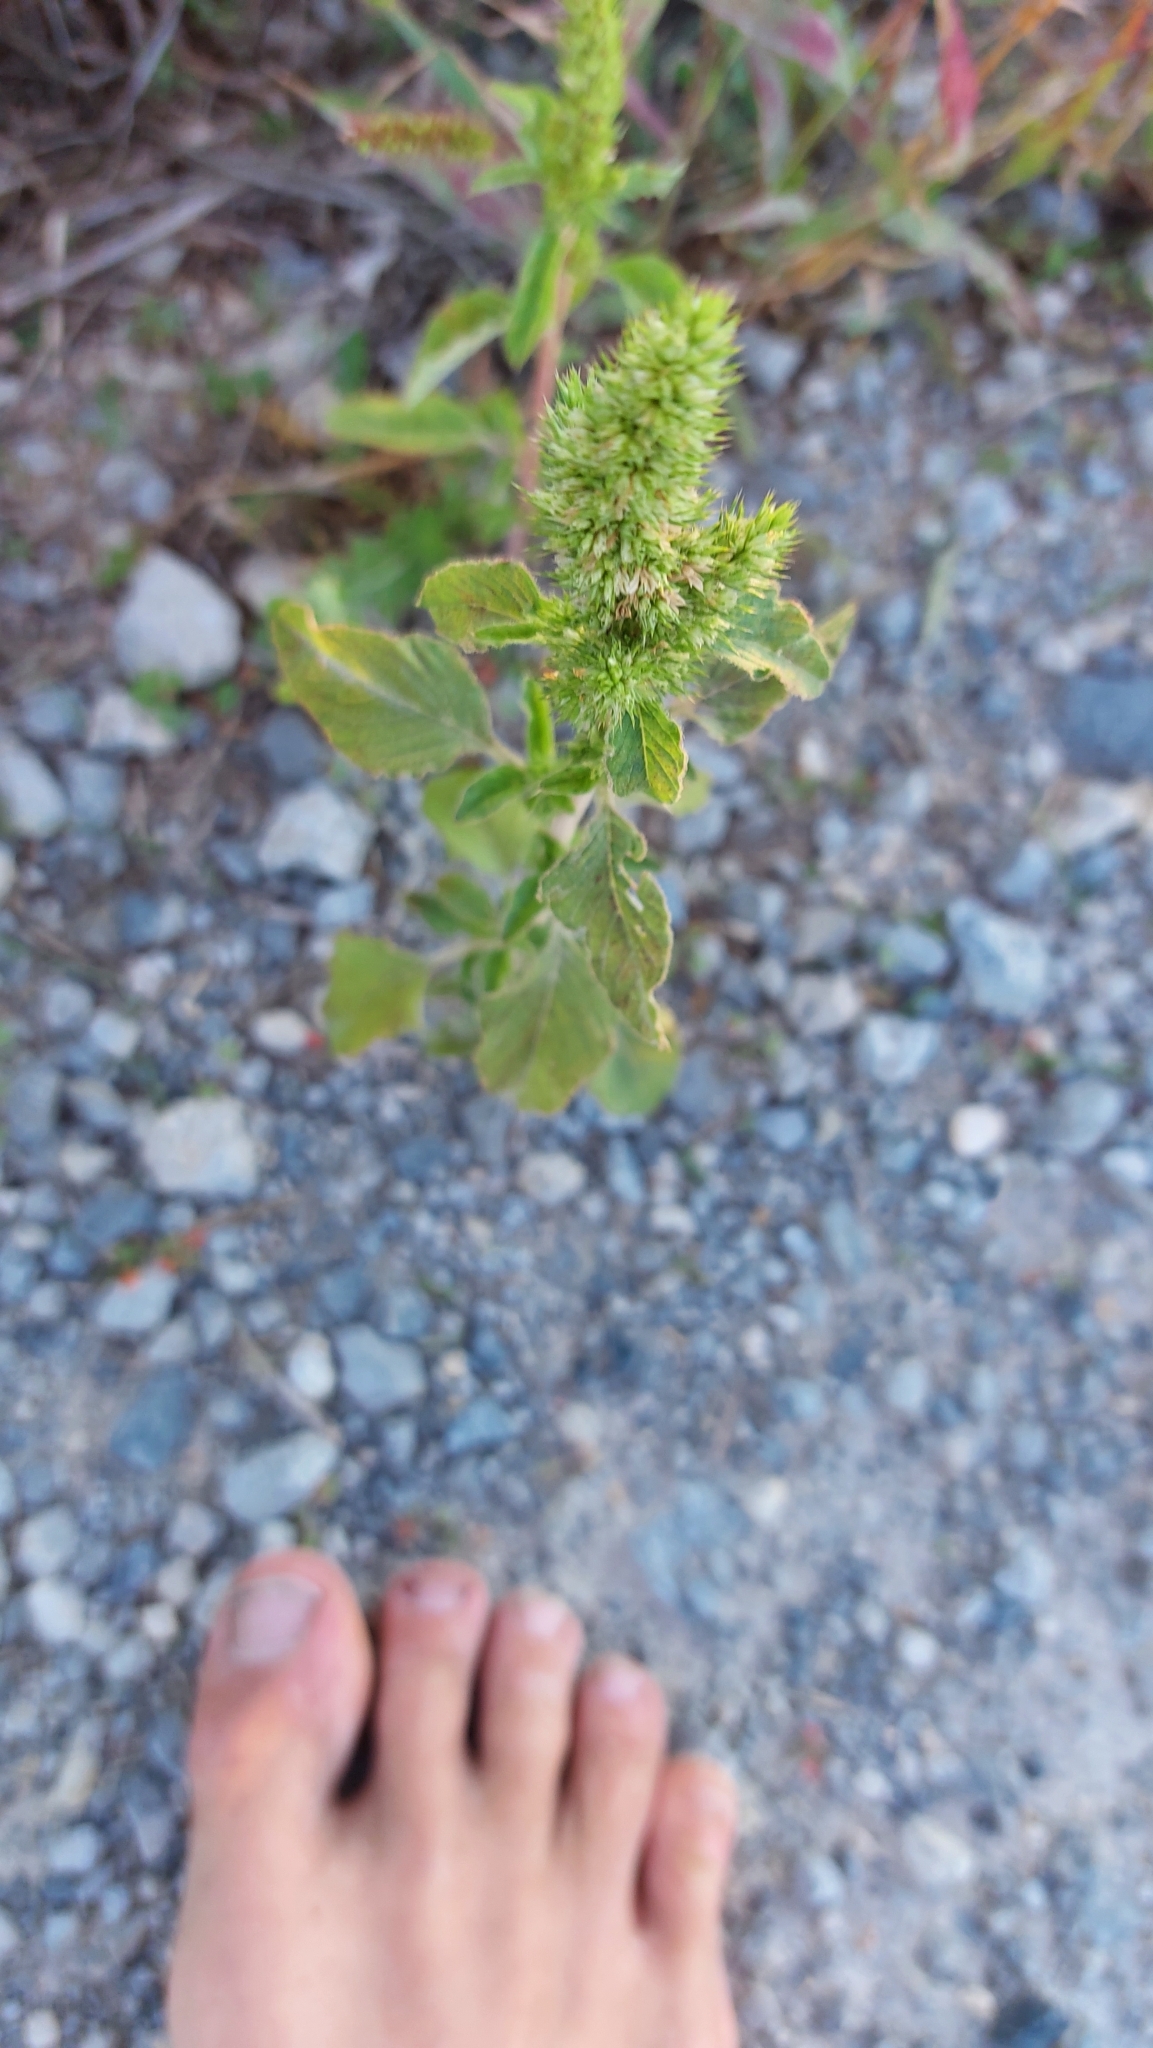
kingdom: Plantae
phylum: Tracheophyta
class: Magnoliopsida
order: Caryophyllales
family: Amaranthaceae
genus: Amaranthus
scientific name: Amaranthus retroflexus
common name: Redroot amaranth
